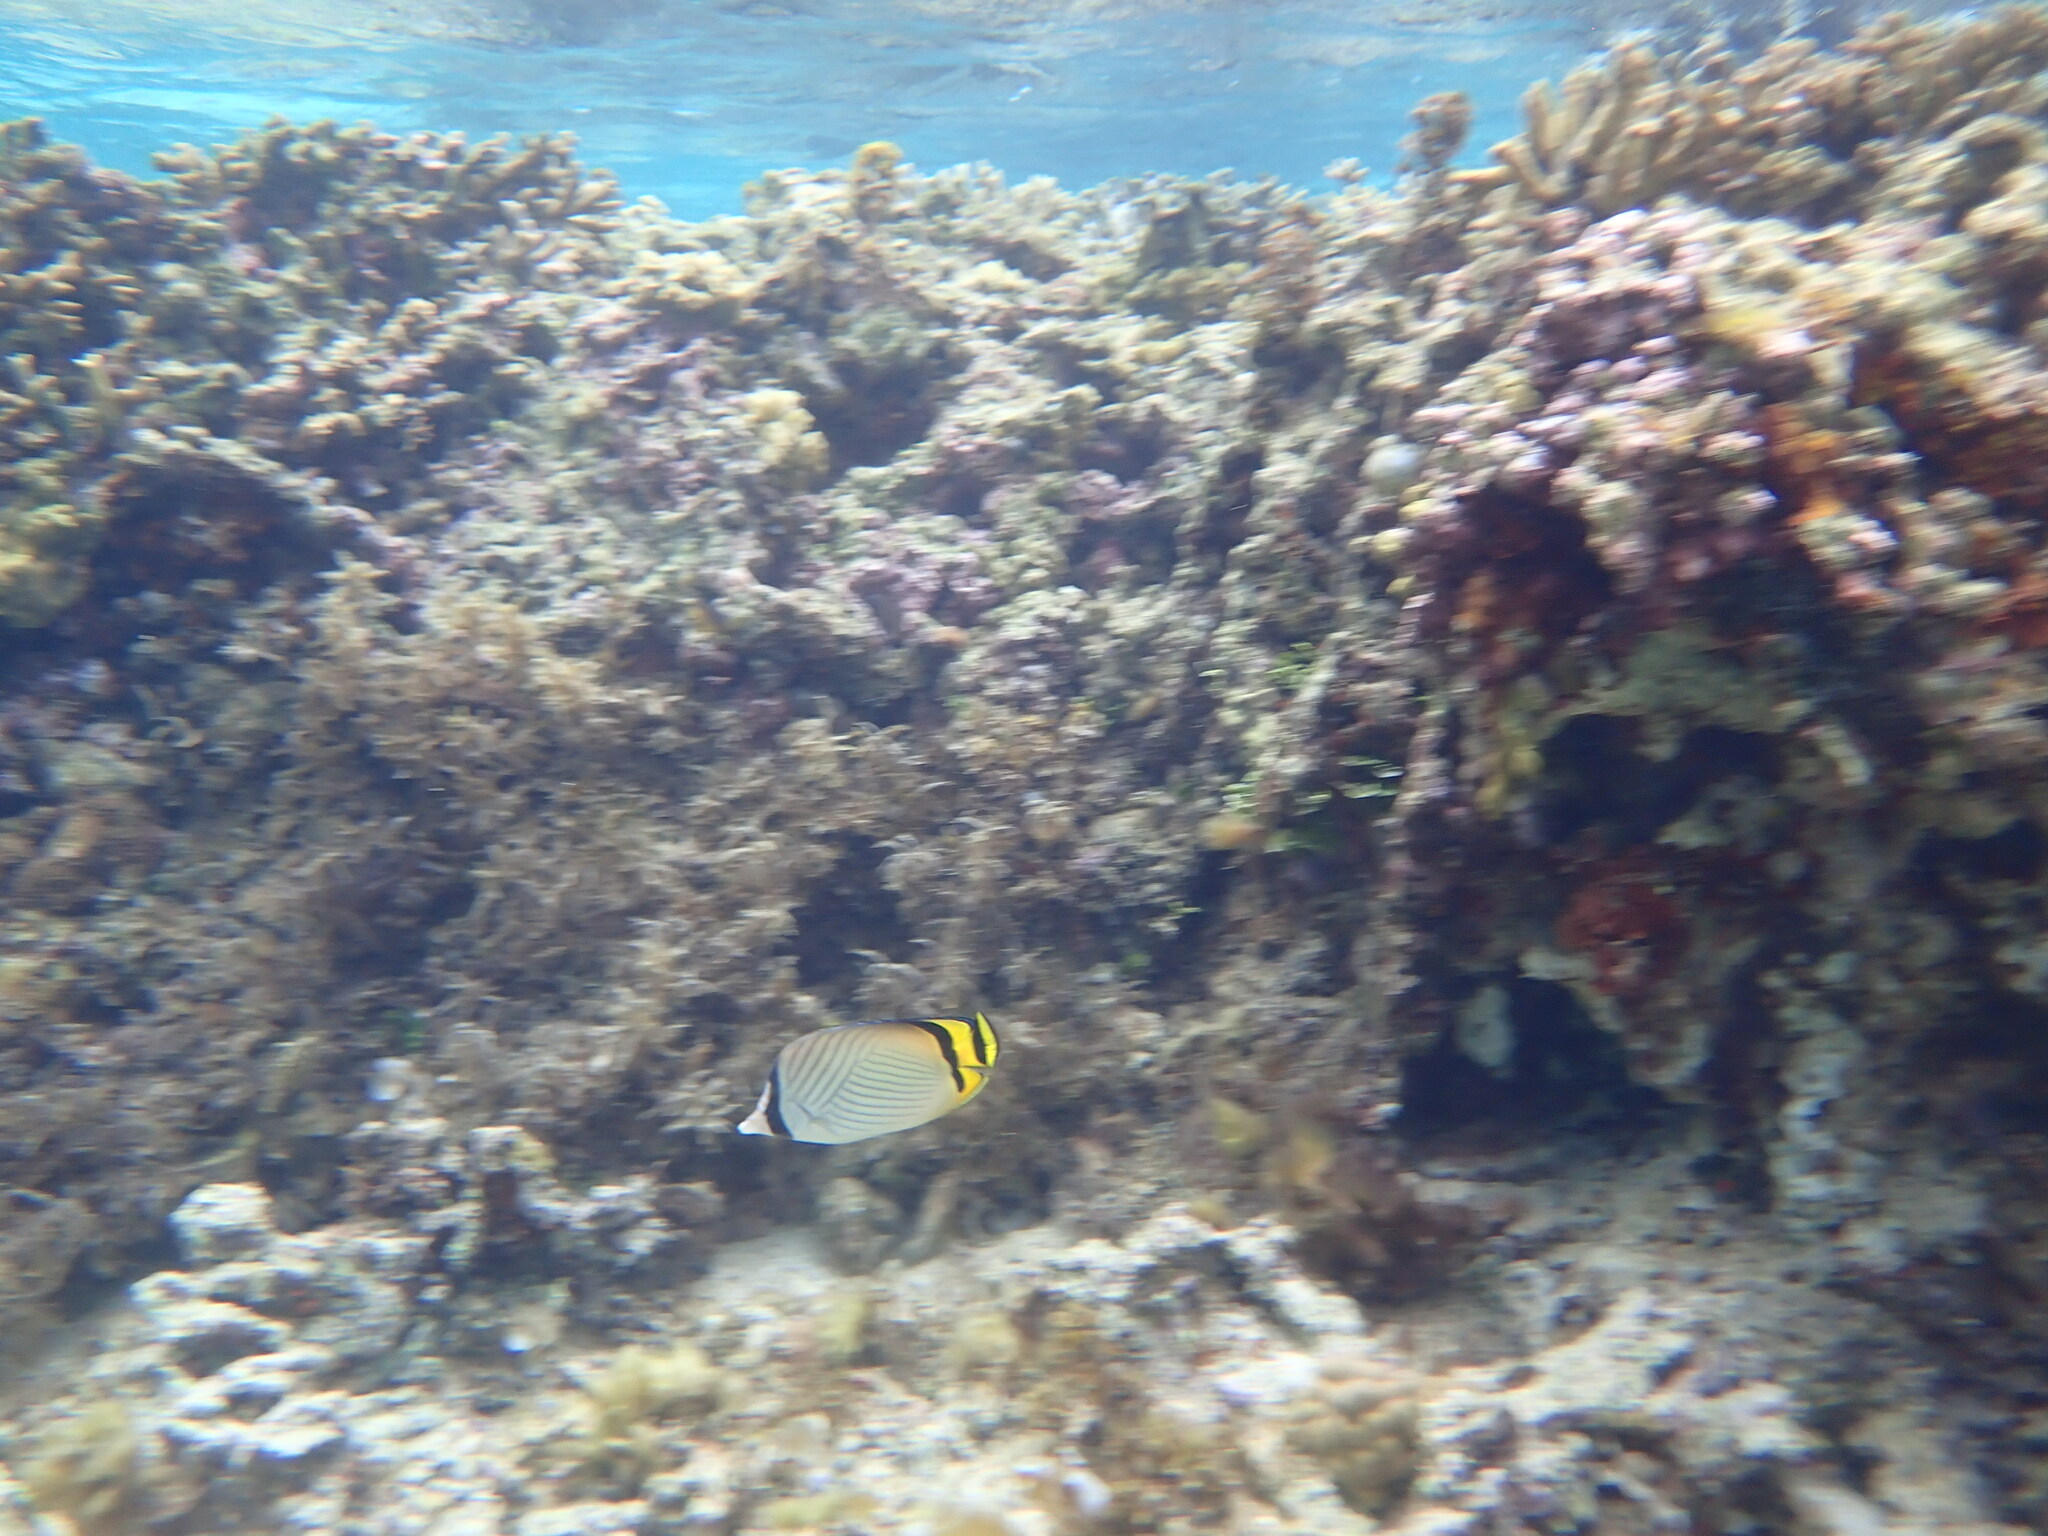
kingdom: Animalia
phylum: Chordata
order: Perciformes
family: Chaetodontidae
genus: Chaetodon
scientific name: Chaetodon vagabundus
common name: Vagabond butterflyfish
